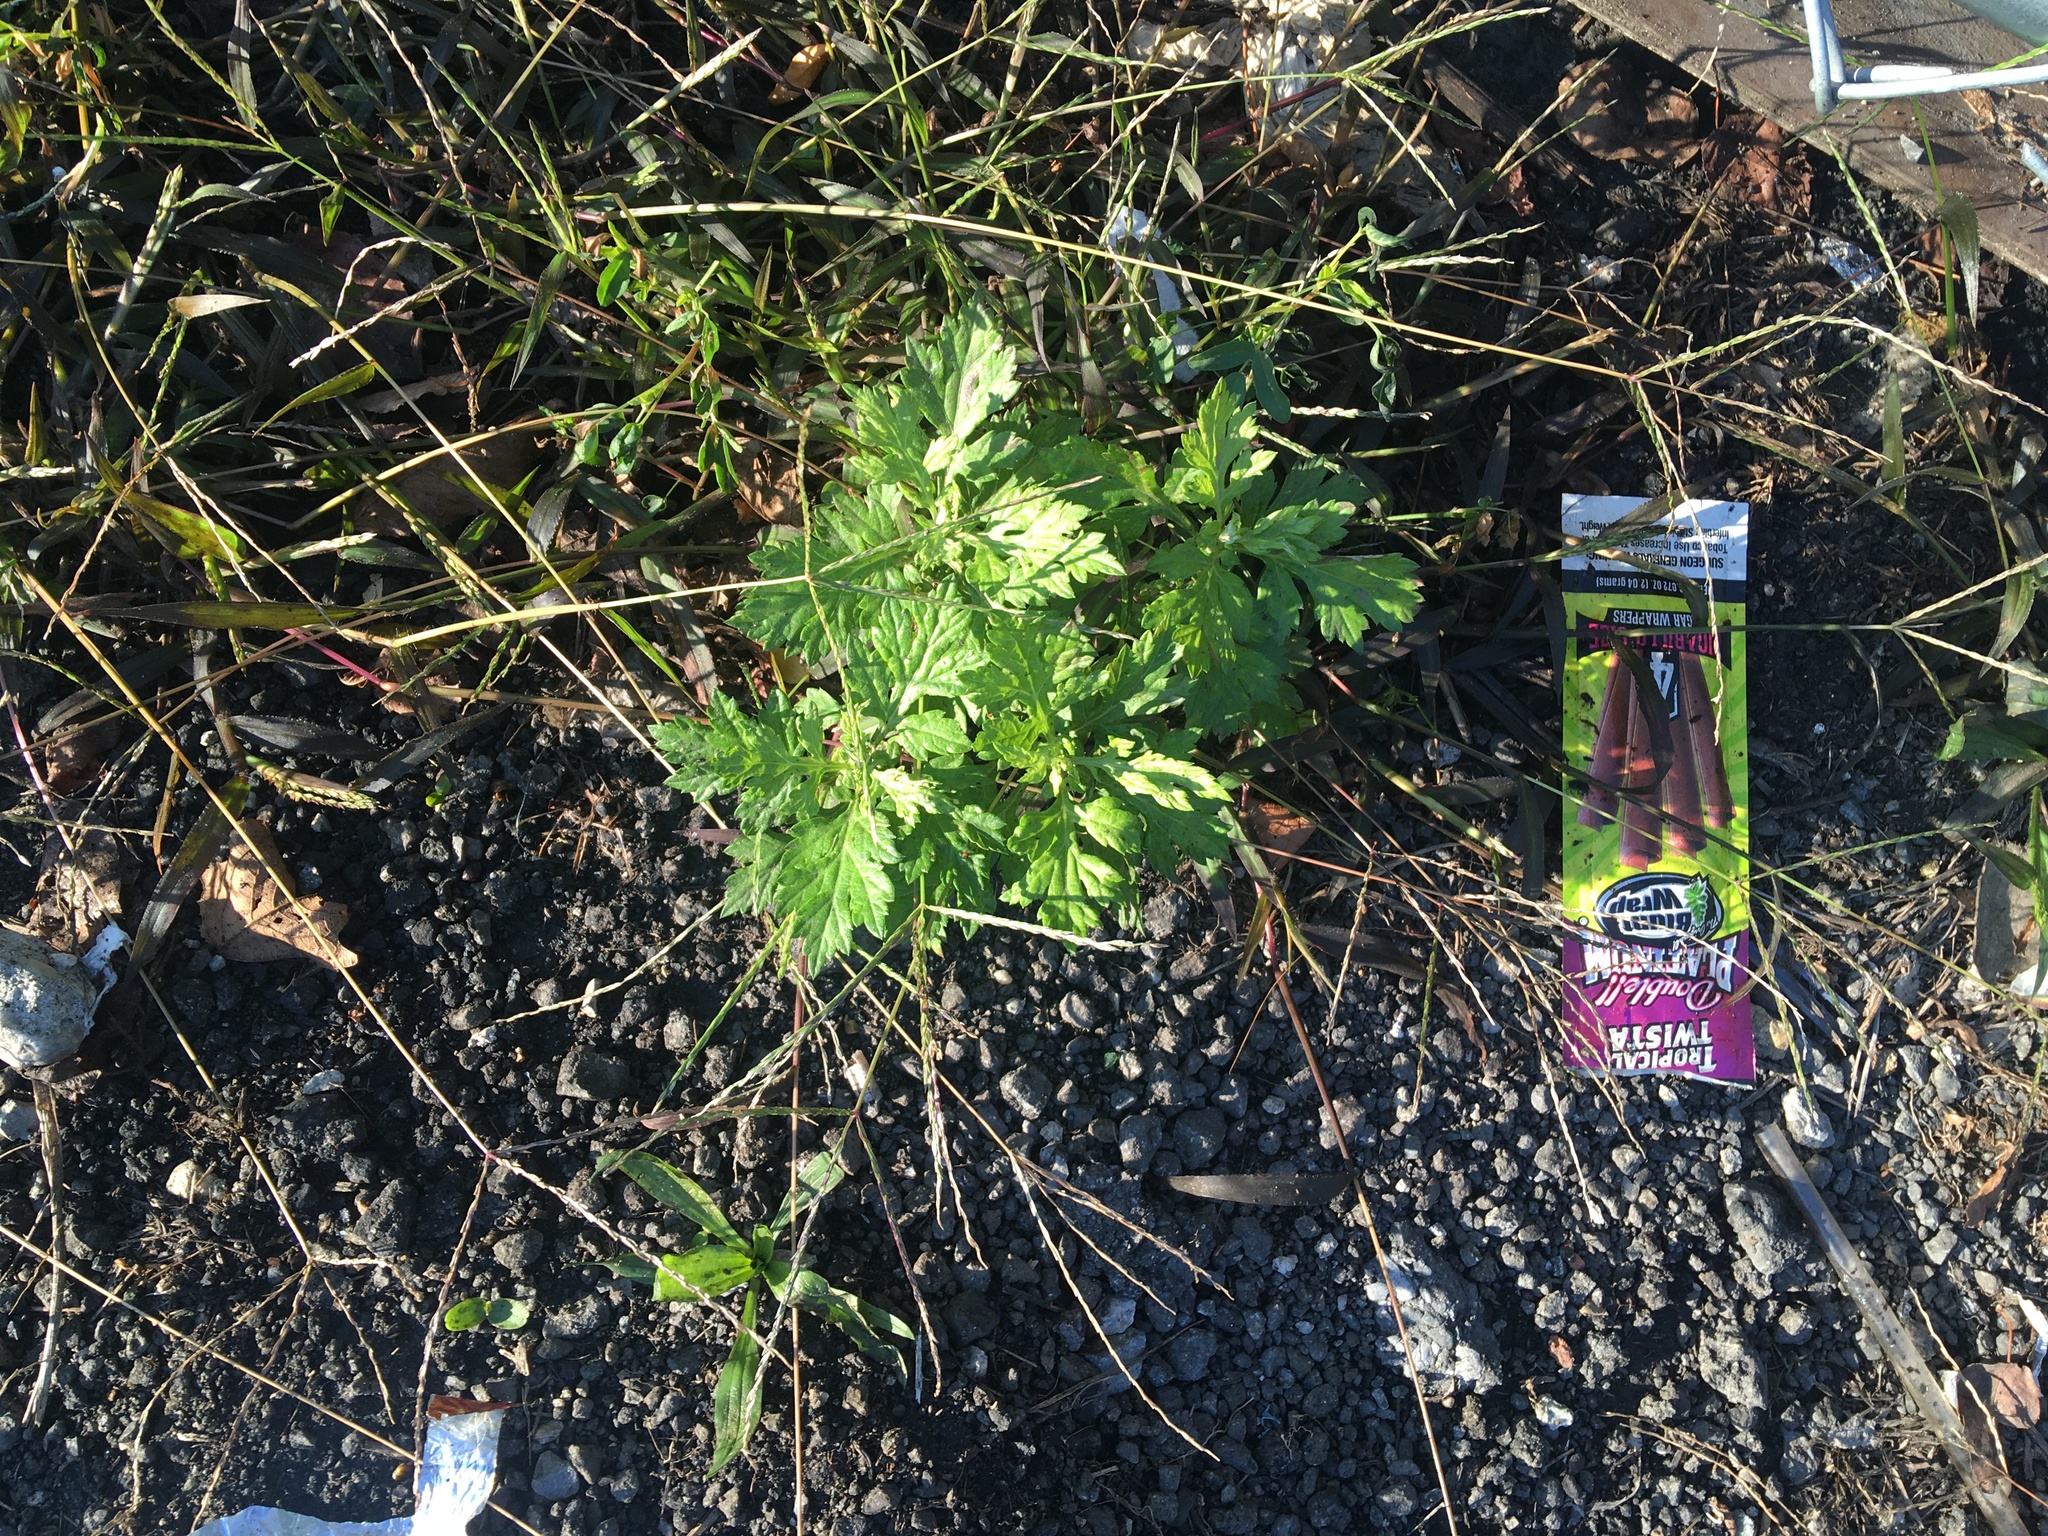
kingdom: Plantae
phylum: Tracheophyta
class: Magnoliopsida
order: Asterales
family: Asteraceae
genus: Artemisia
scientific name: Artemisia vulgaris
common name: Mugwort
